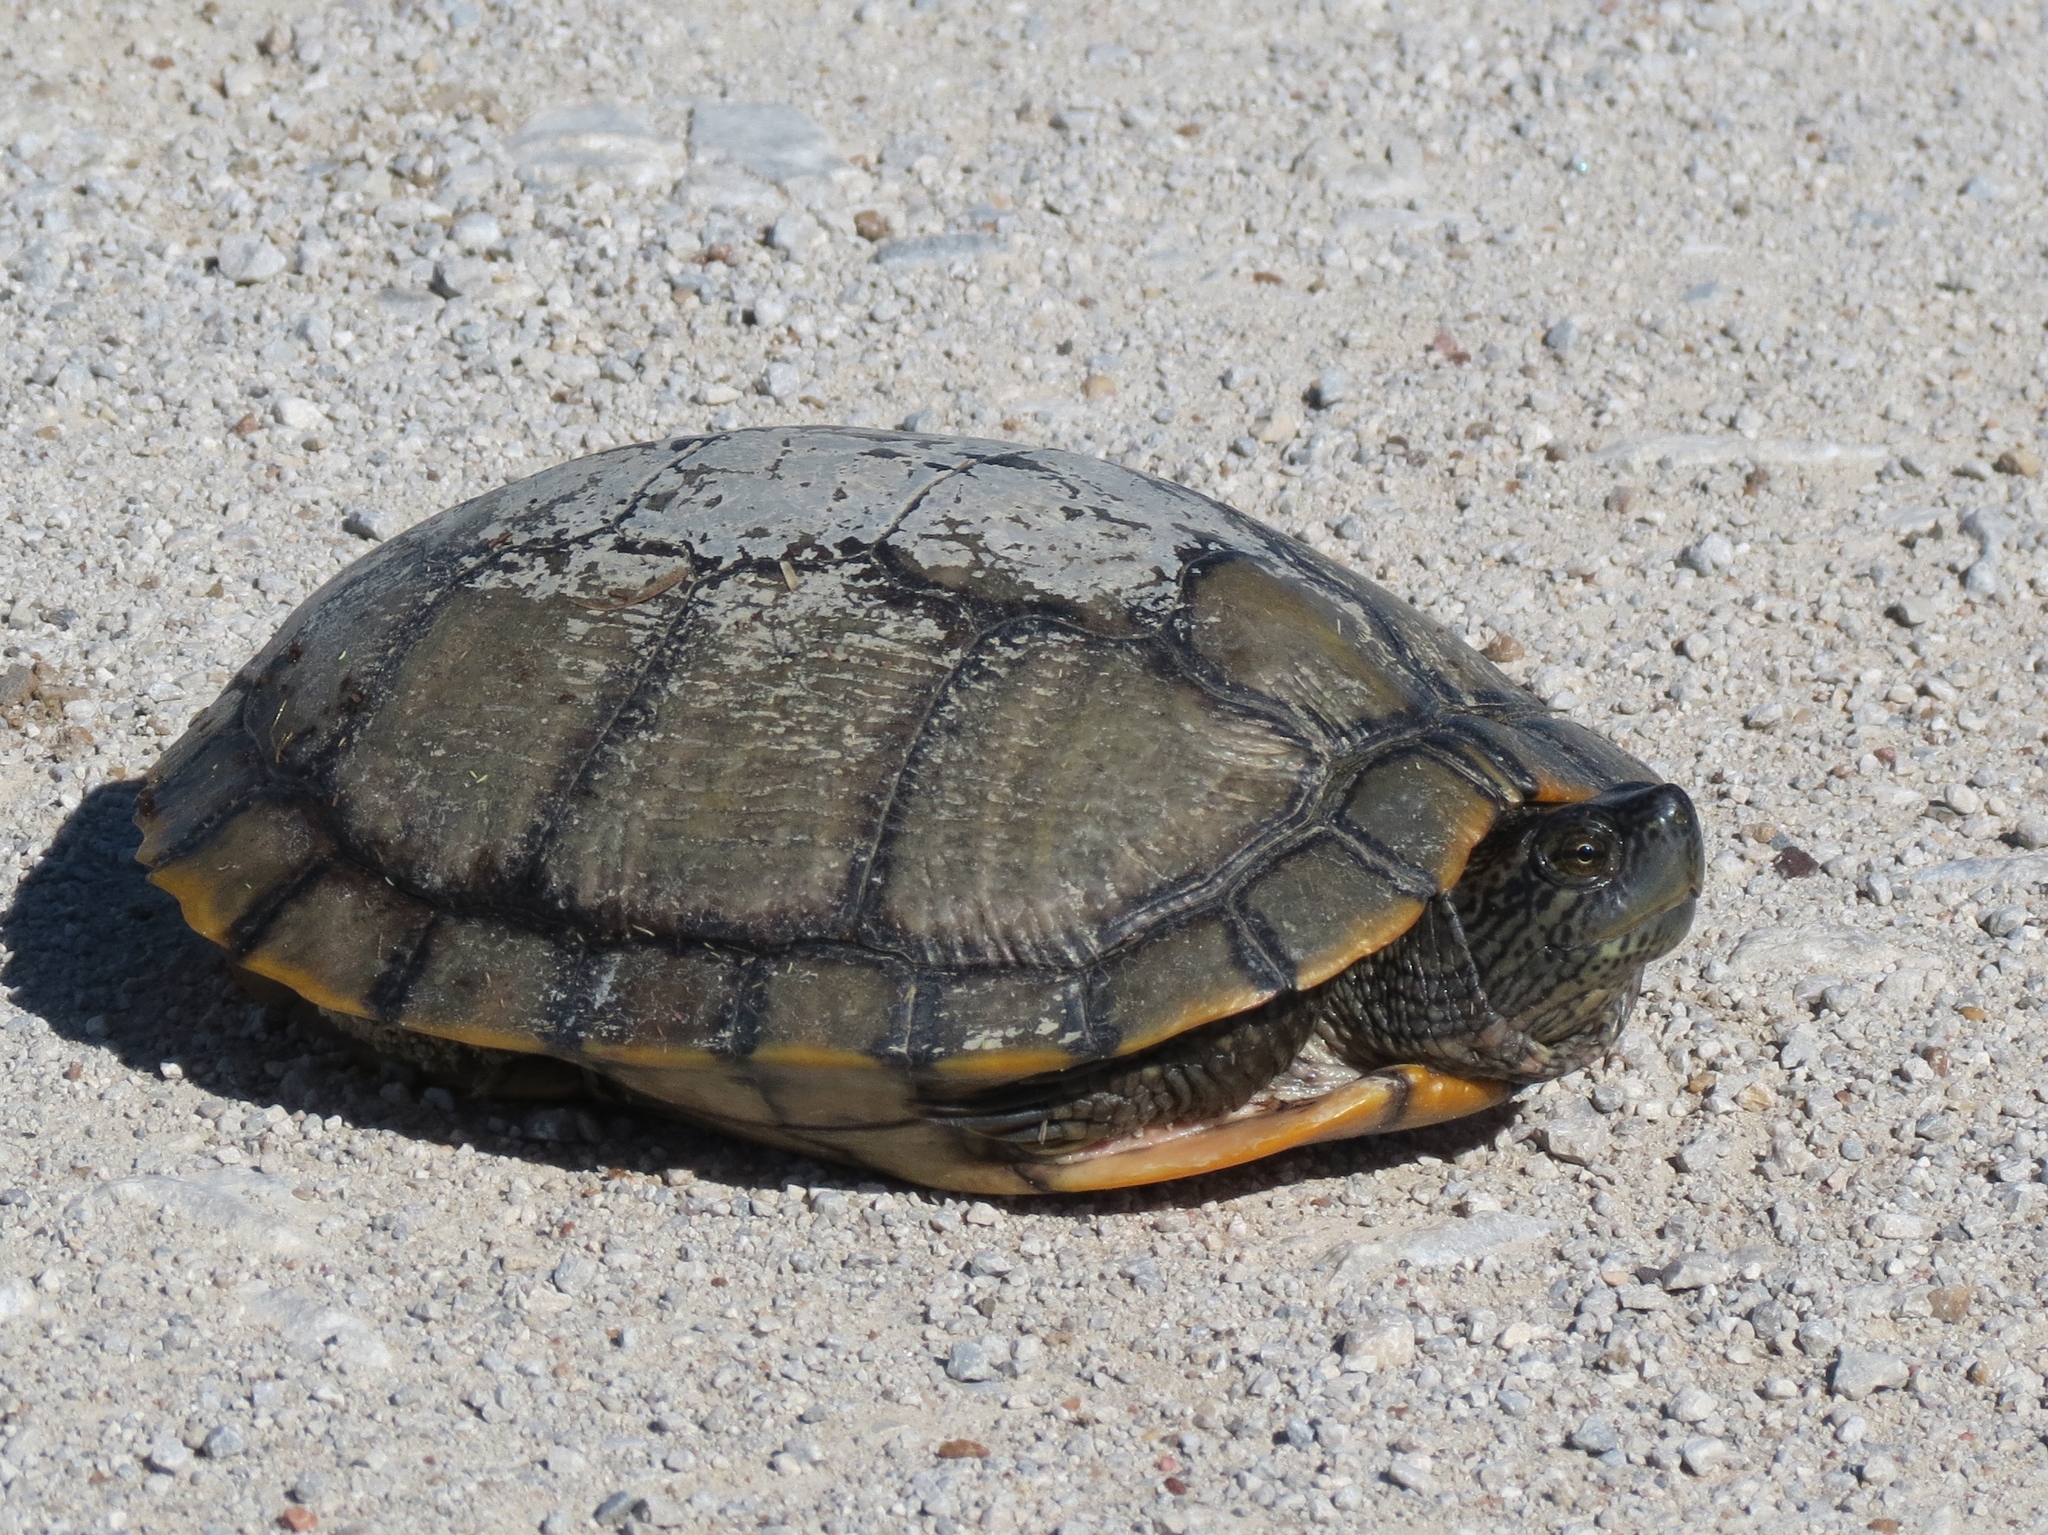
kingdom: Animalia
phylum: Chordata
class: Testudines
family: Emydidae
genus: Trachemys
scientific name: Trachemys scripta
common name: Slider
